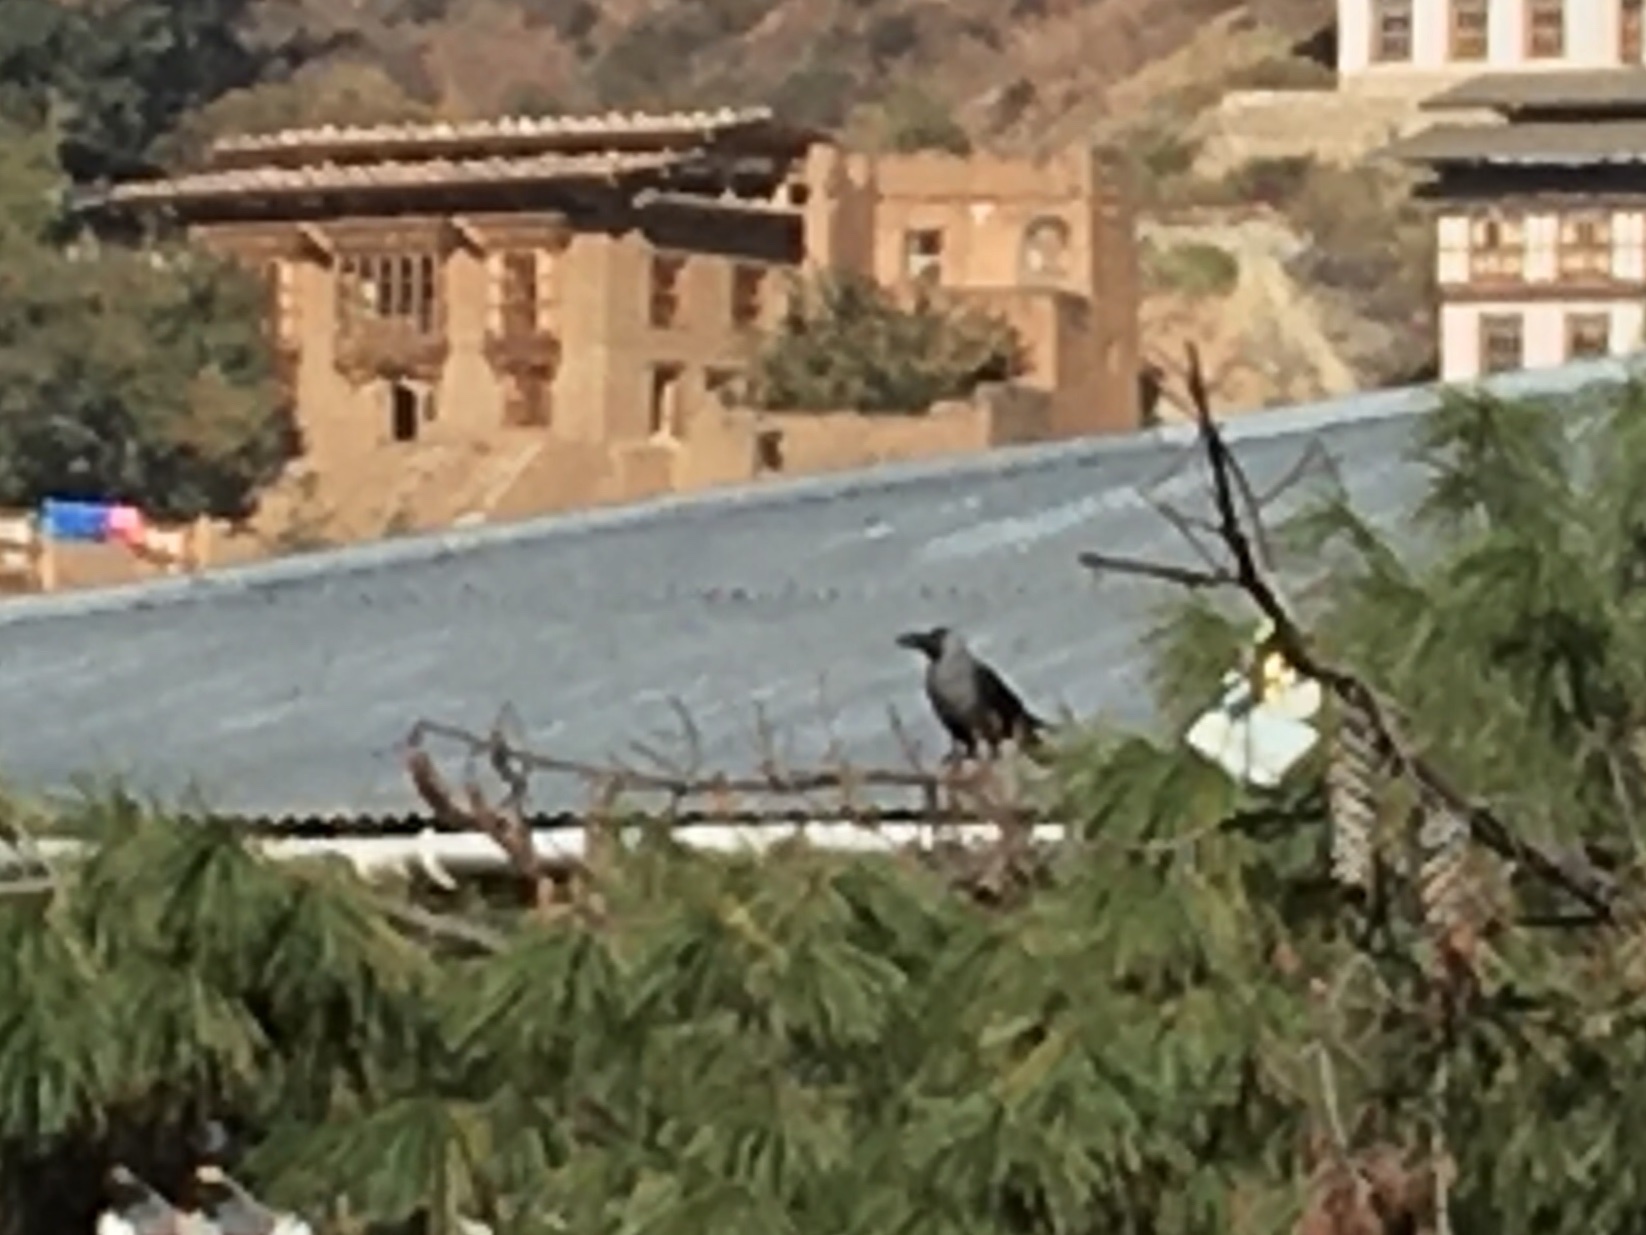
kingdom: Animalia
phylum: Chordata
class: Aves
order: Passeriformes
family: Corvidae
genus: Corvus
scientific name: Corvus splendens
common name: House crow
